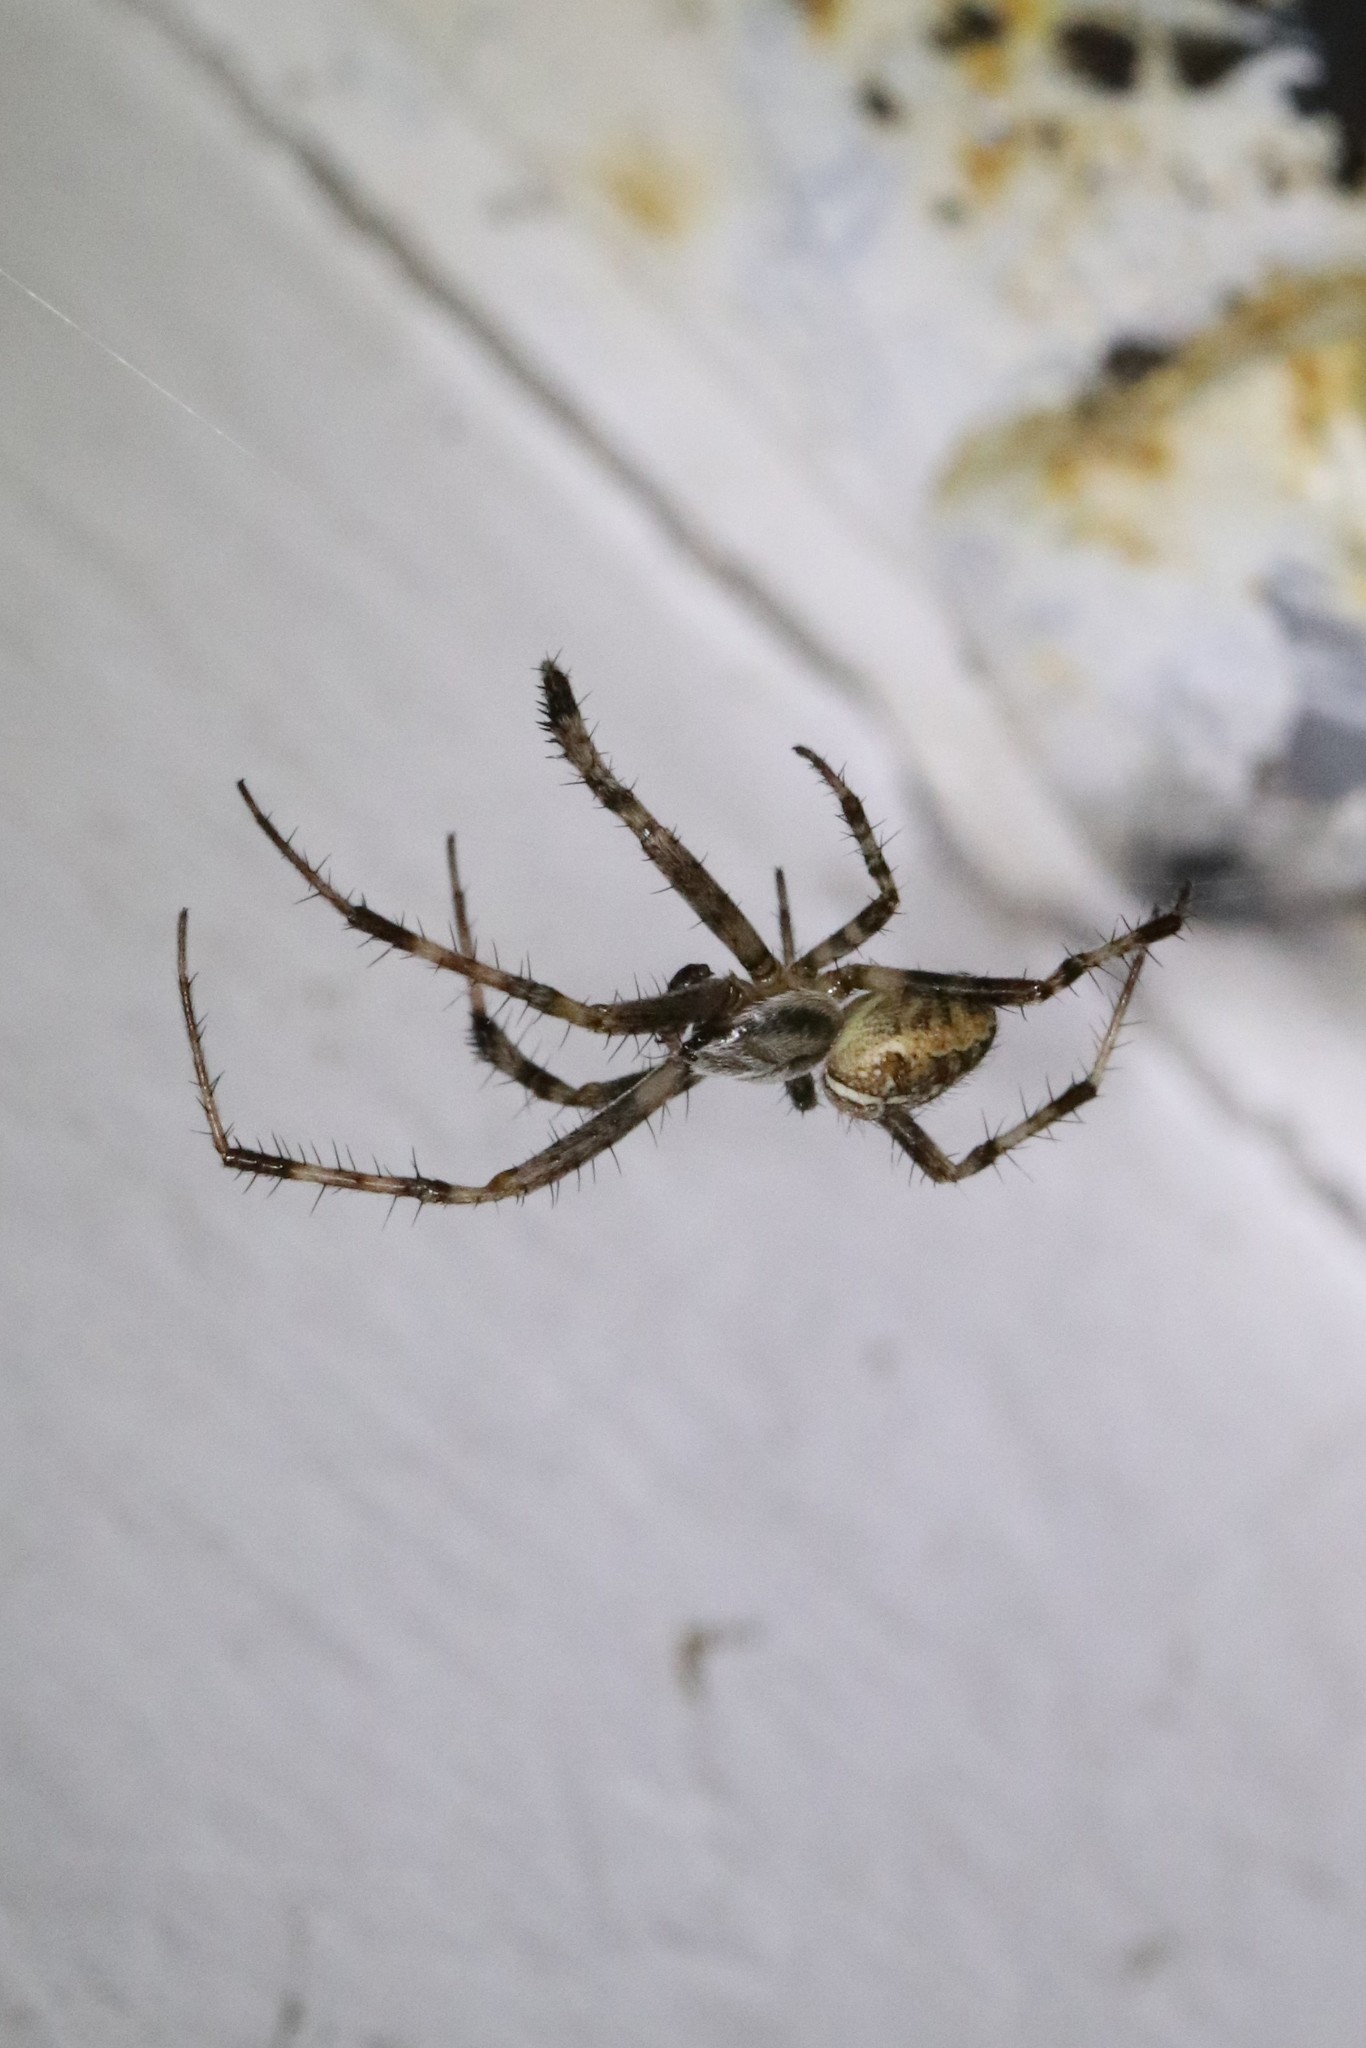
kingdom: Animalia
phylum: Arthropoda
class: Arachnida
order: Araneae
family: Araneidae
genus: Araneus
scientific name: Araneus diadematus
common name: Cross orbweaver
